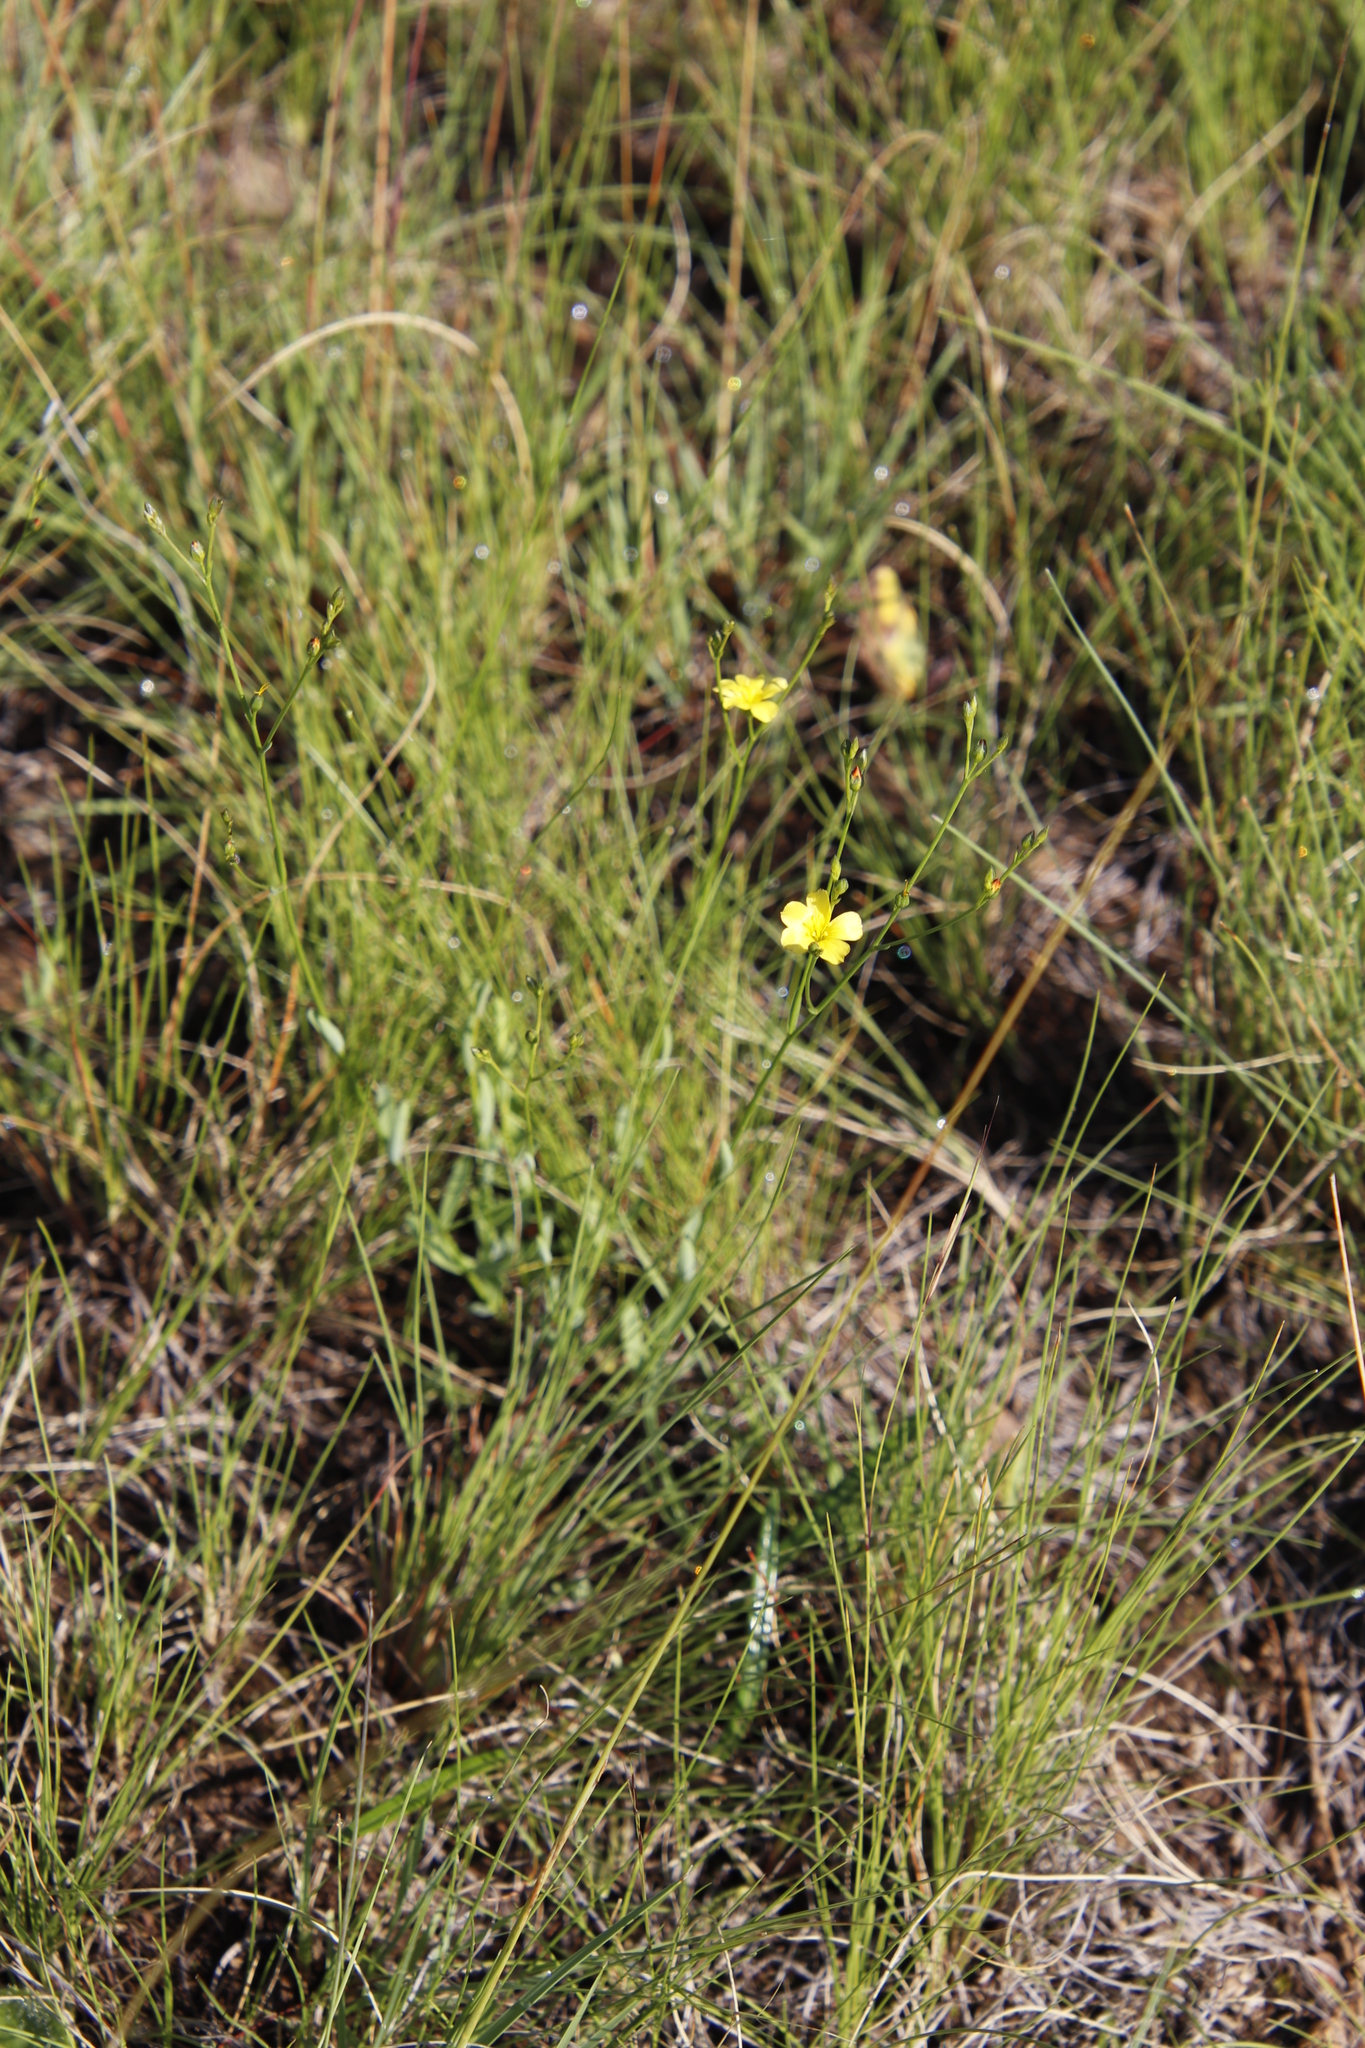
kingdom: Plantae
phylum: Tracheophyta
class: Magnoliopsida
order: Malpighiales
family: Linaceae
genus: Linum
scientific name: Linum thunbergii
